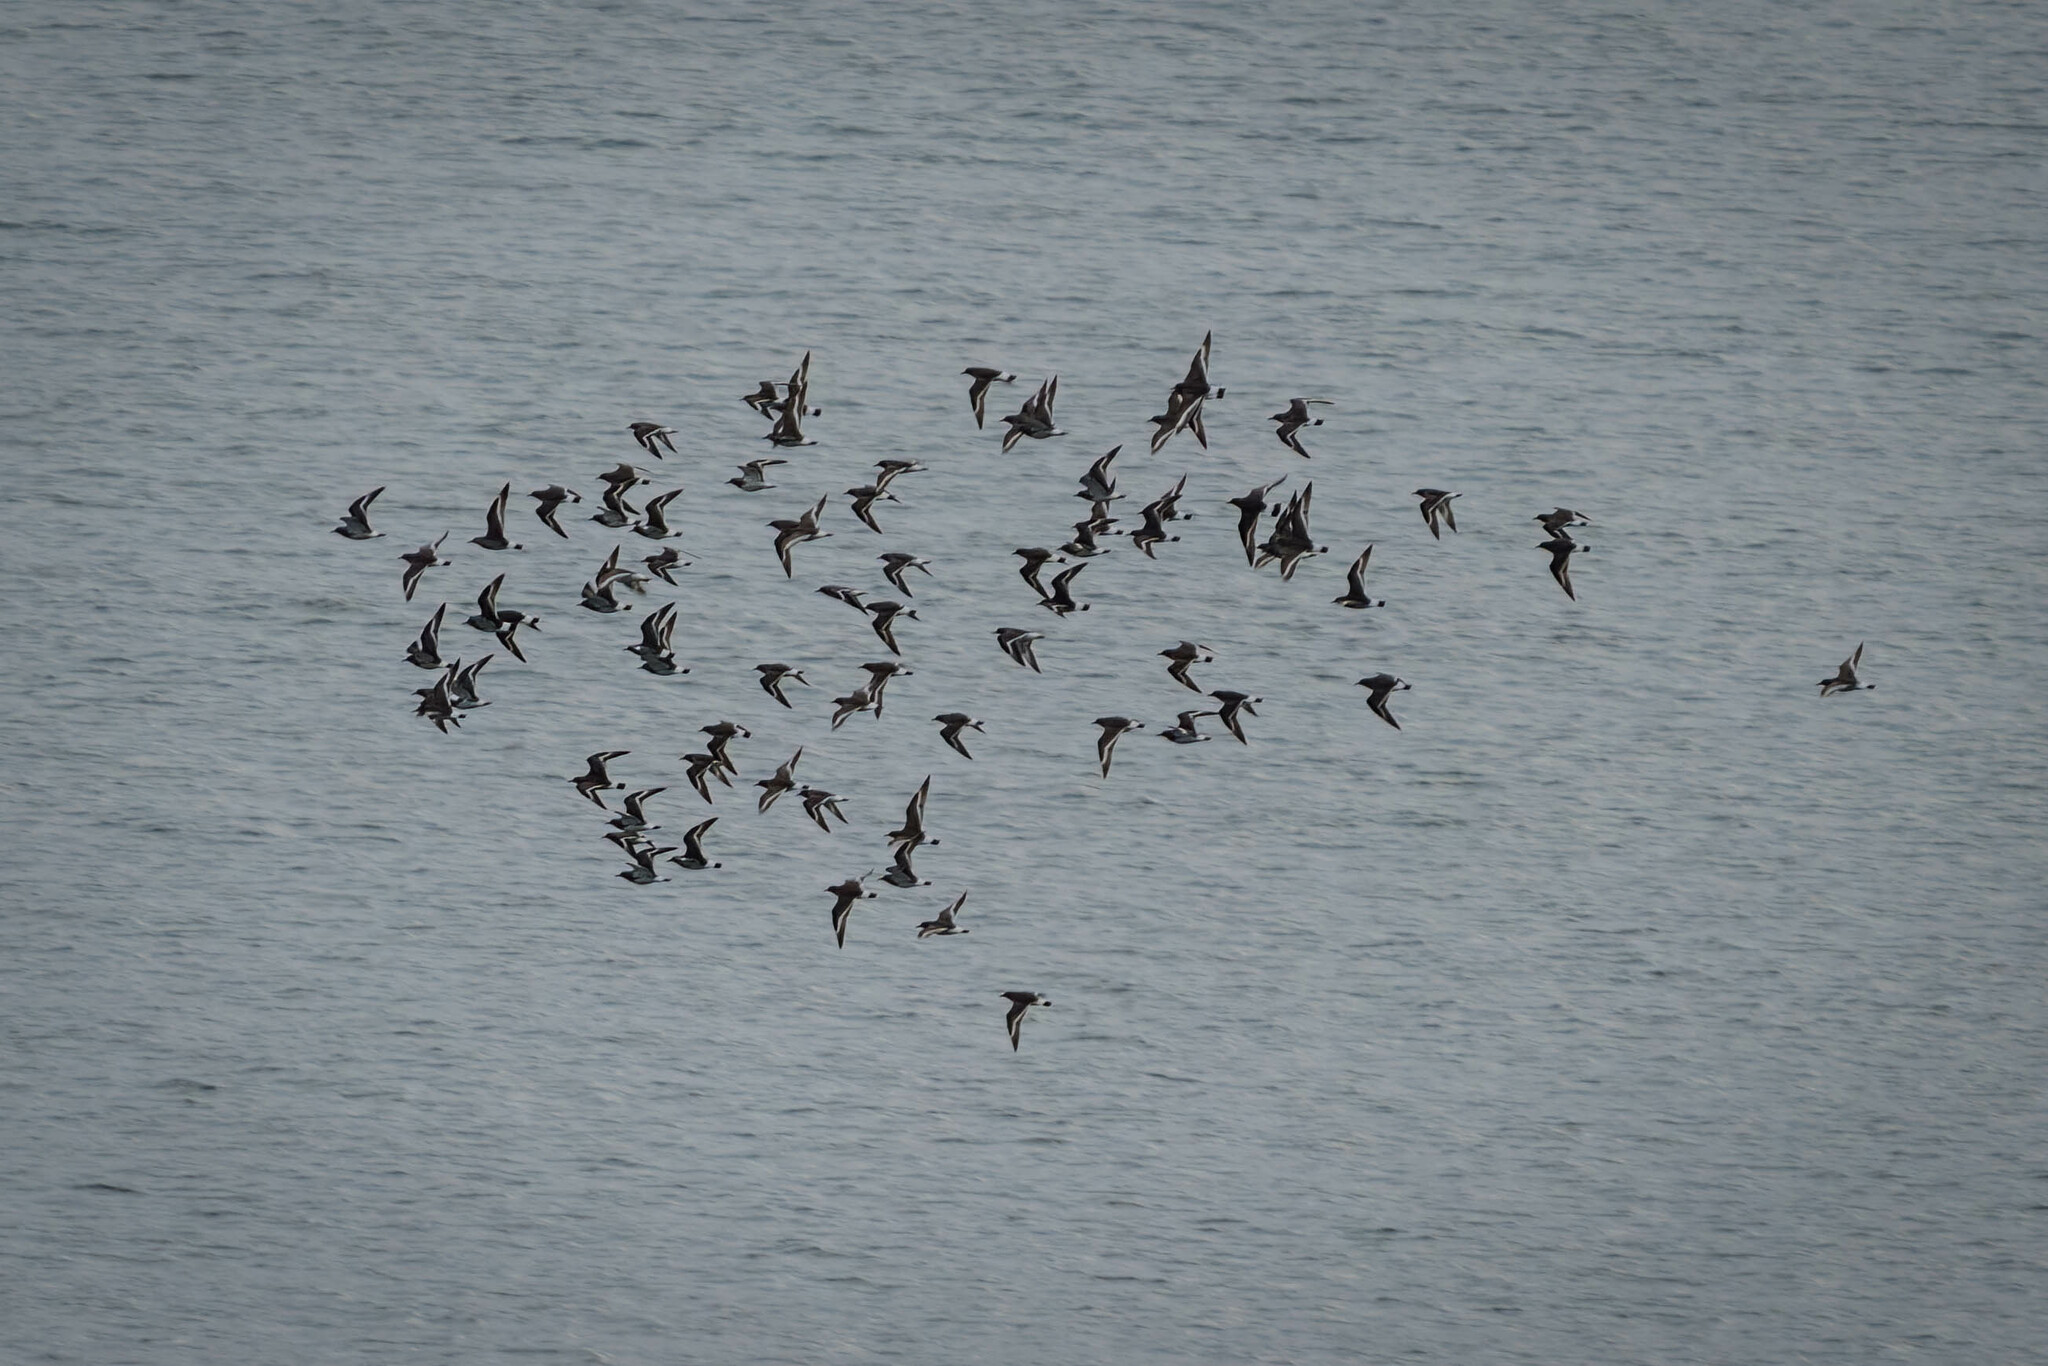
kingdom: Animalia
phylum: Chordata
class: Aves
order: Charadriiformes
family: Scolopacidae
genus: Calidris
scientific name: Calidris virgata
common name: Surfbird
